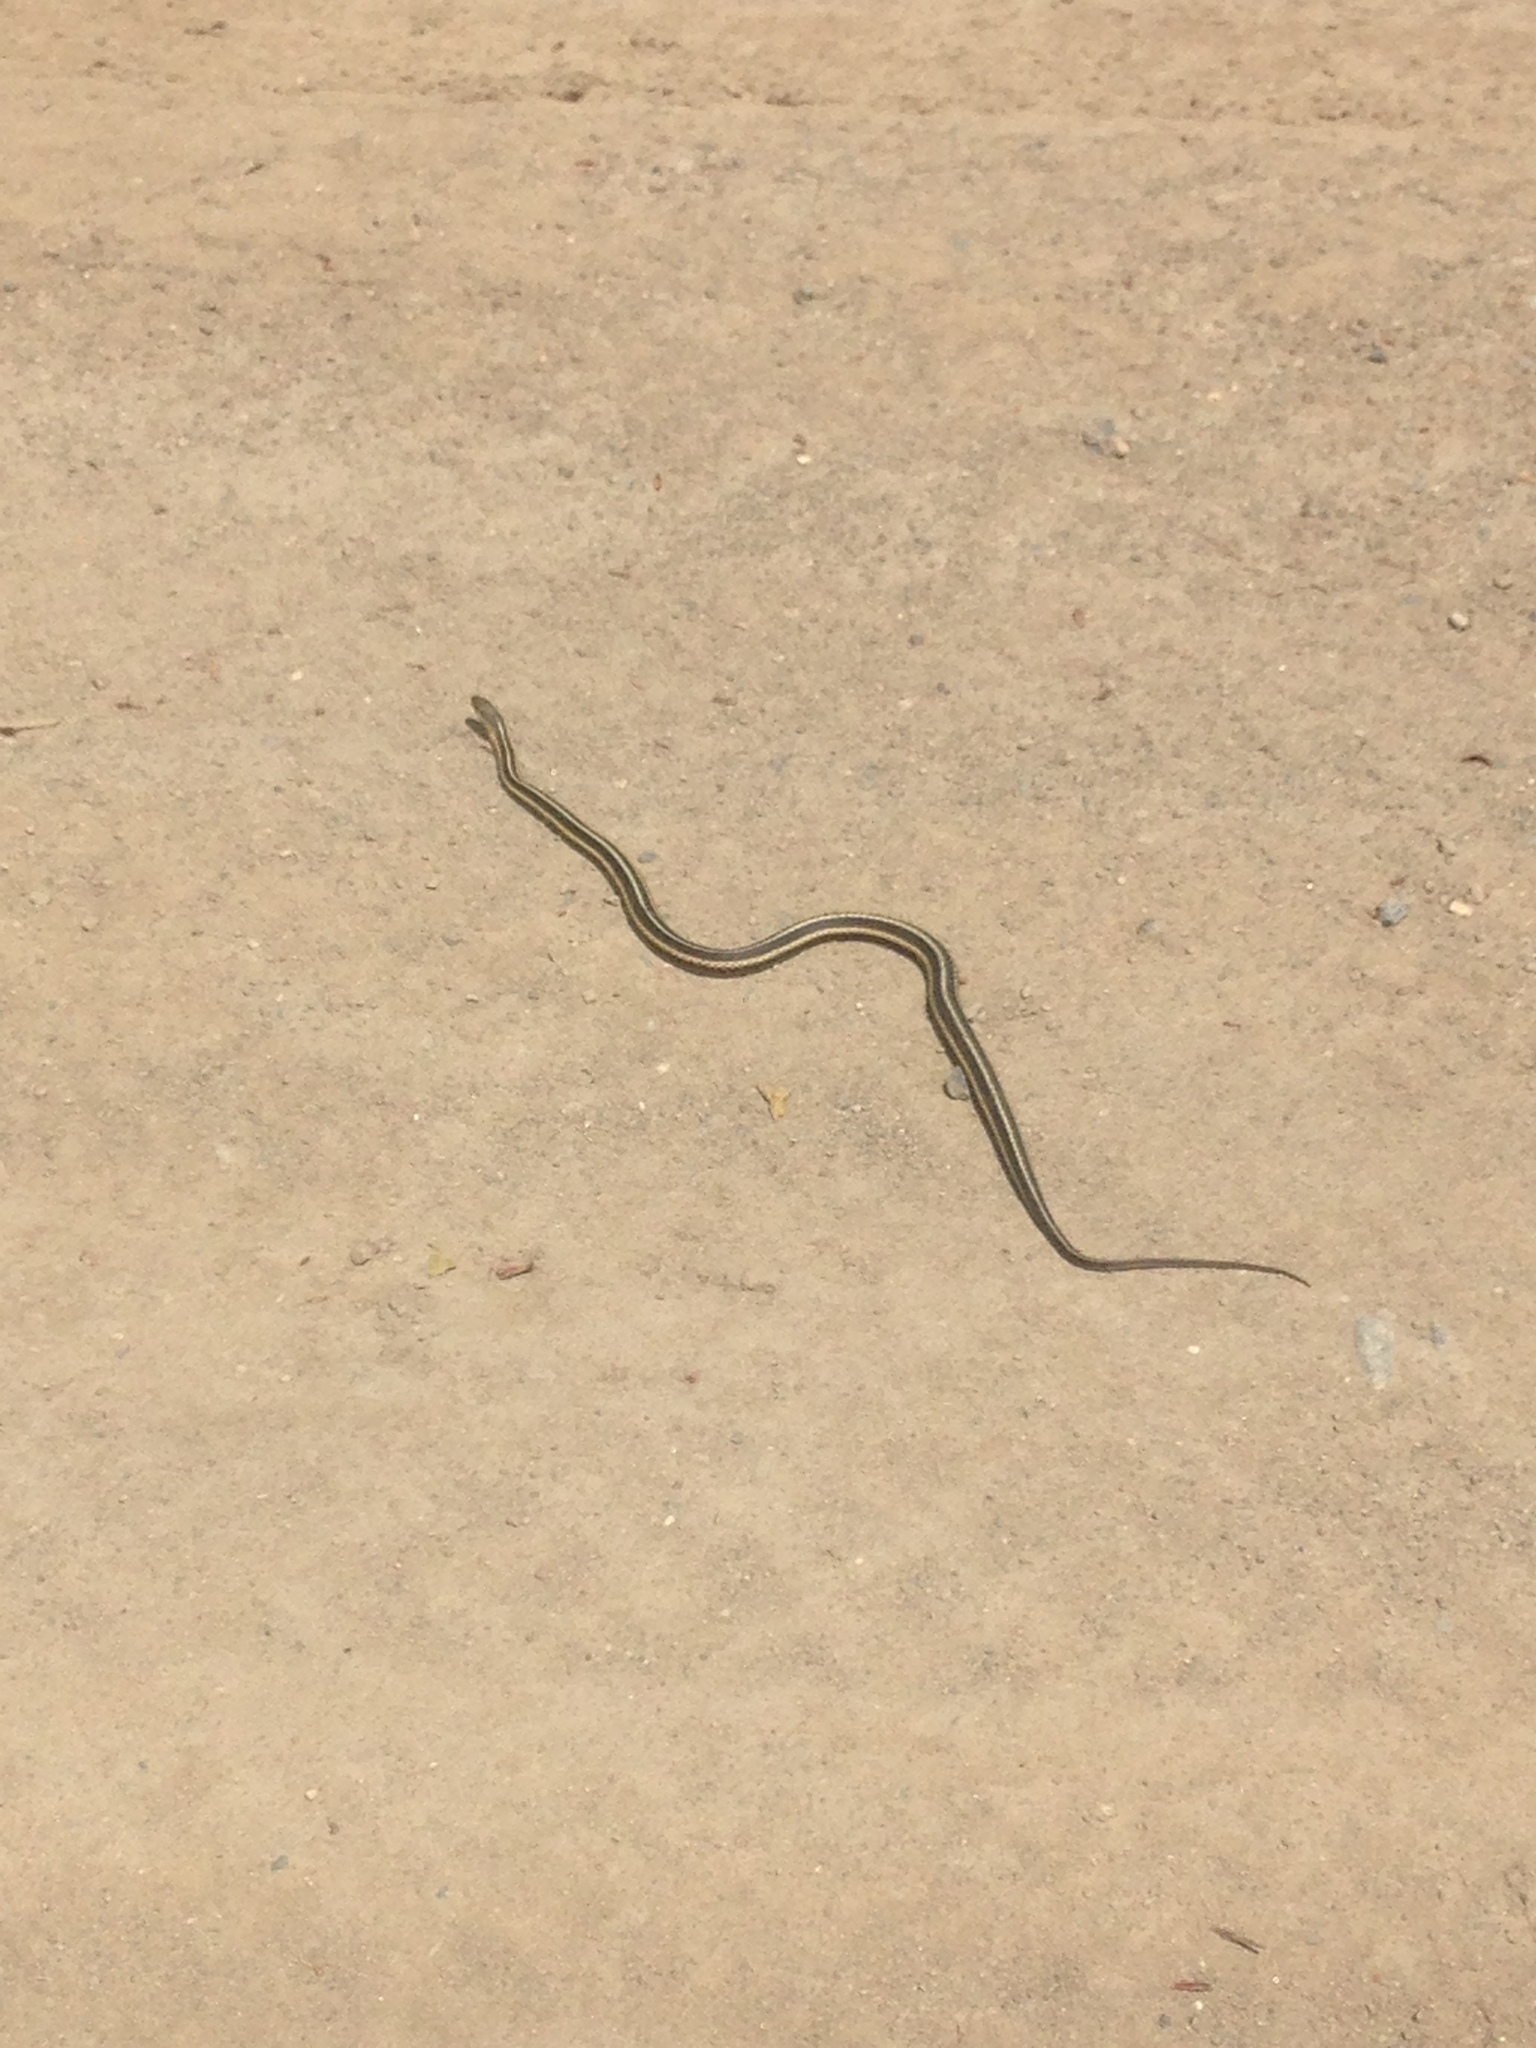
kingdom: Animalia
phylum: Chordata
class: Squamata
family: Colubridae
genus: Thamnophis
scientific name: Thamnophis sirtalis
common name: Common garter snake
